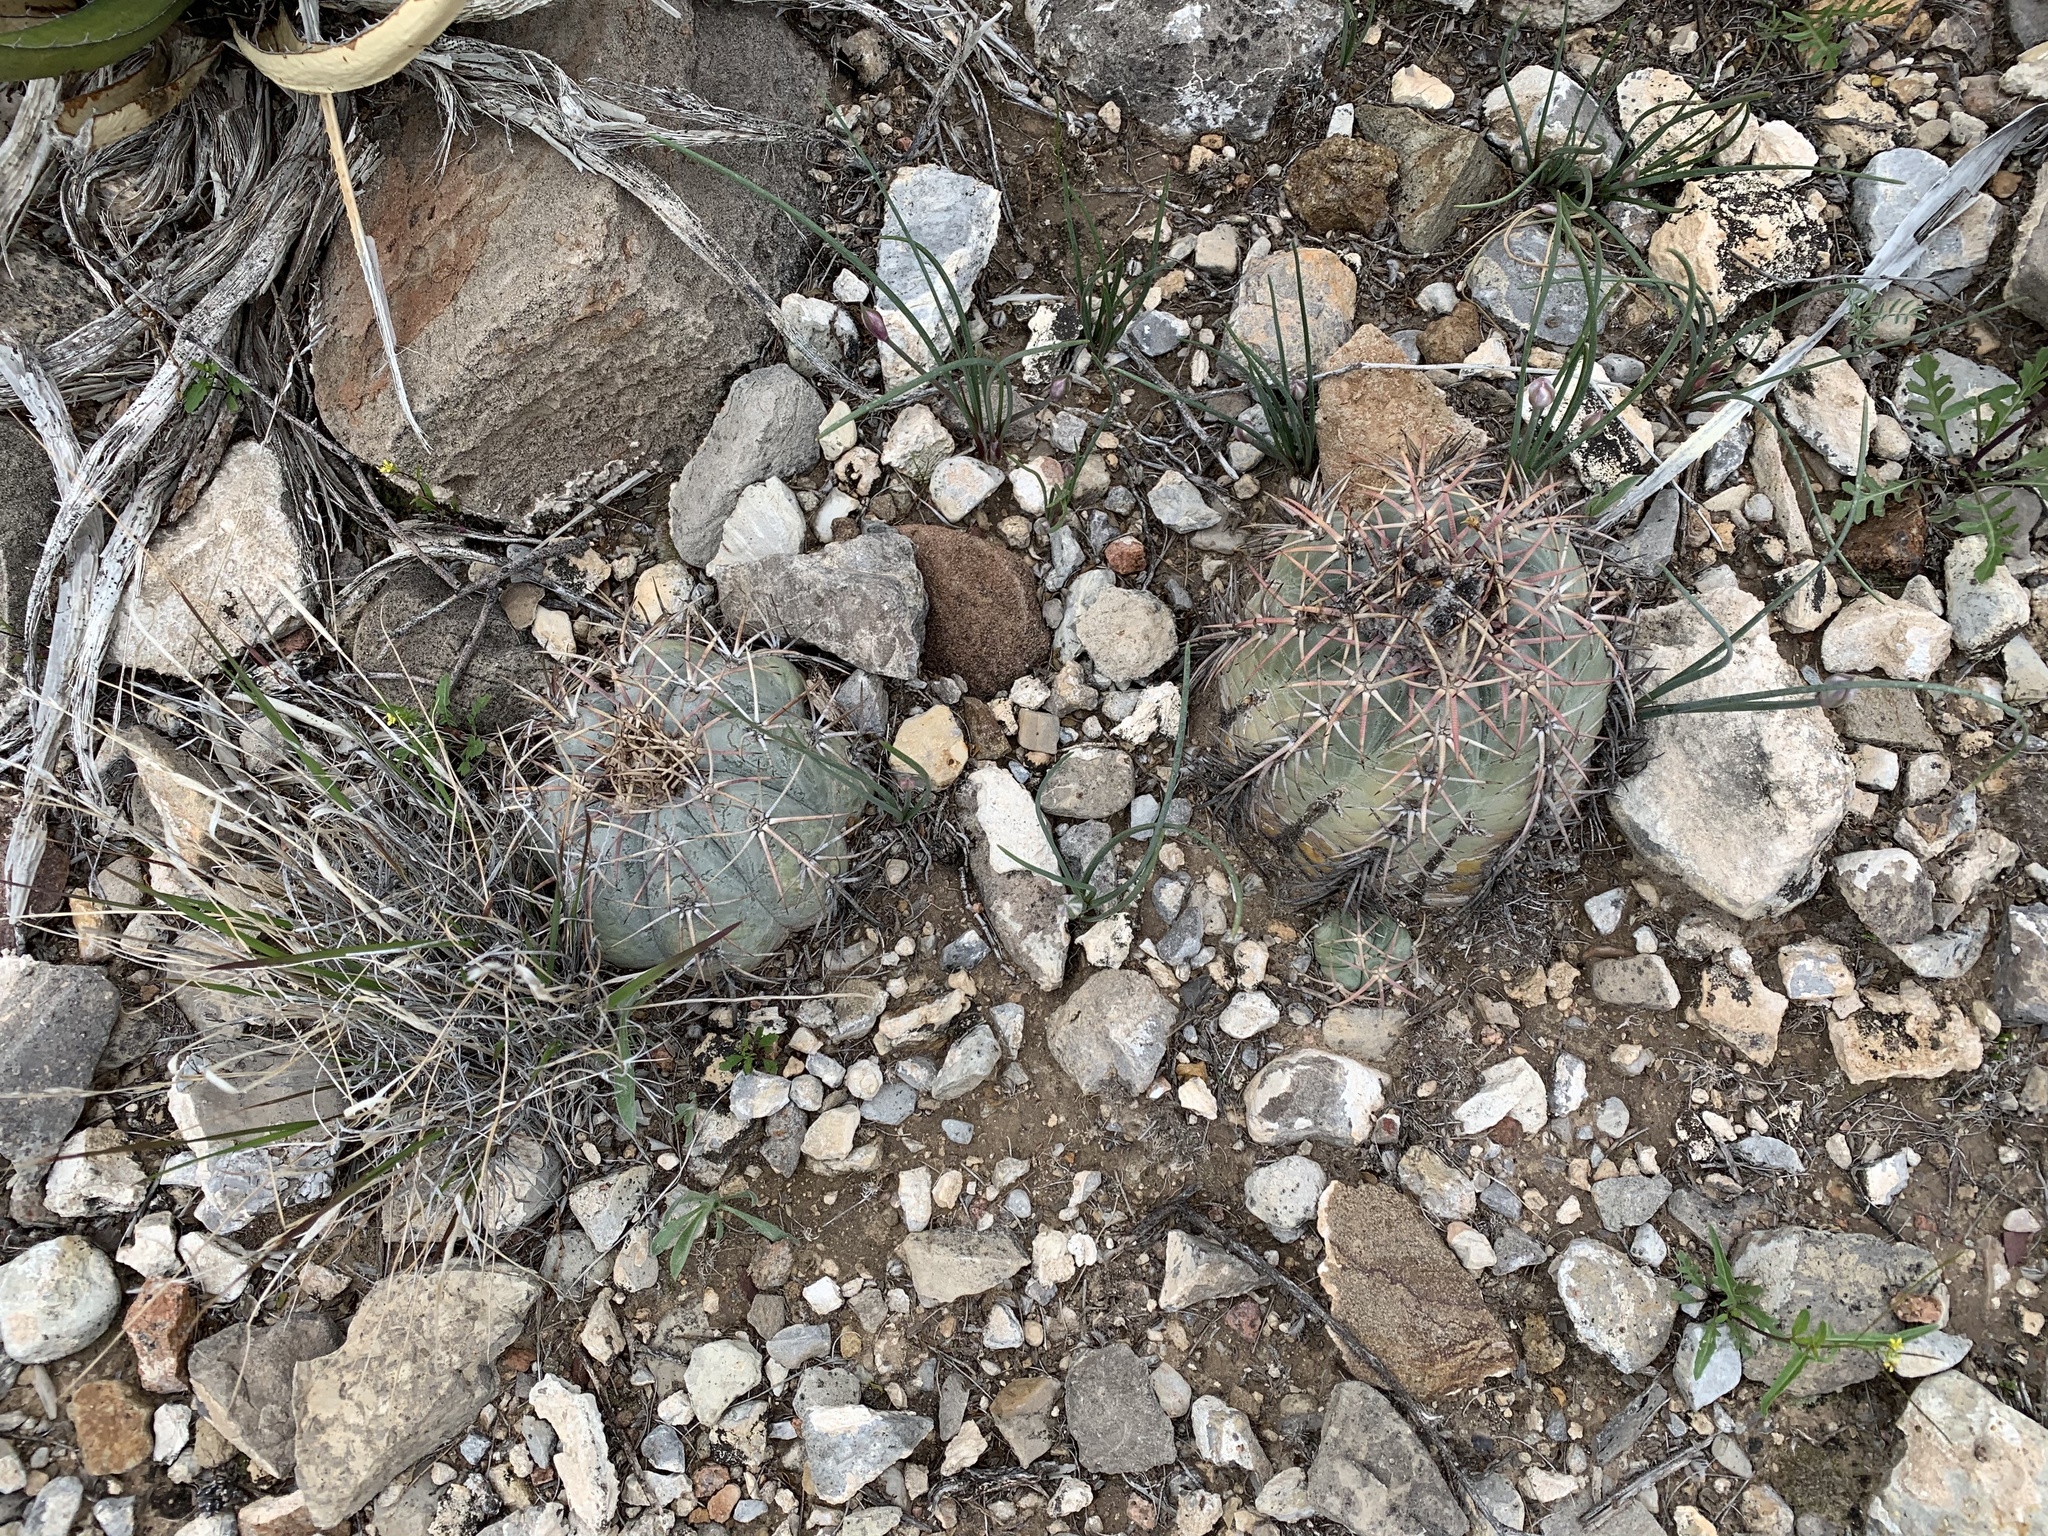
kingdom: Plantae
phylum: Tracheophyta
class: Magnoliopsida
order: Caryophyllales
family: Cactaceae
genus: Echinocactus
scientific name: Echinocactus horizonthalonius
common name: Devilshead
